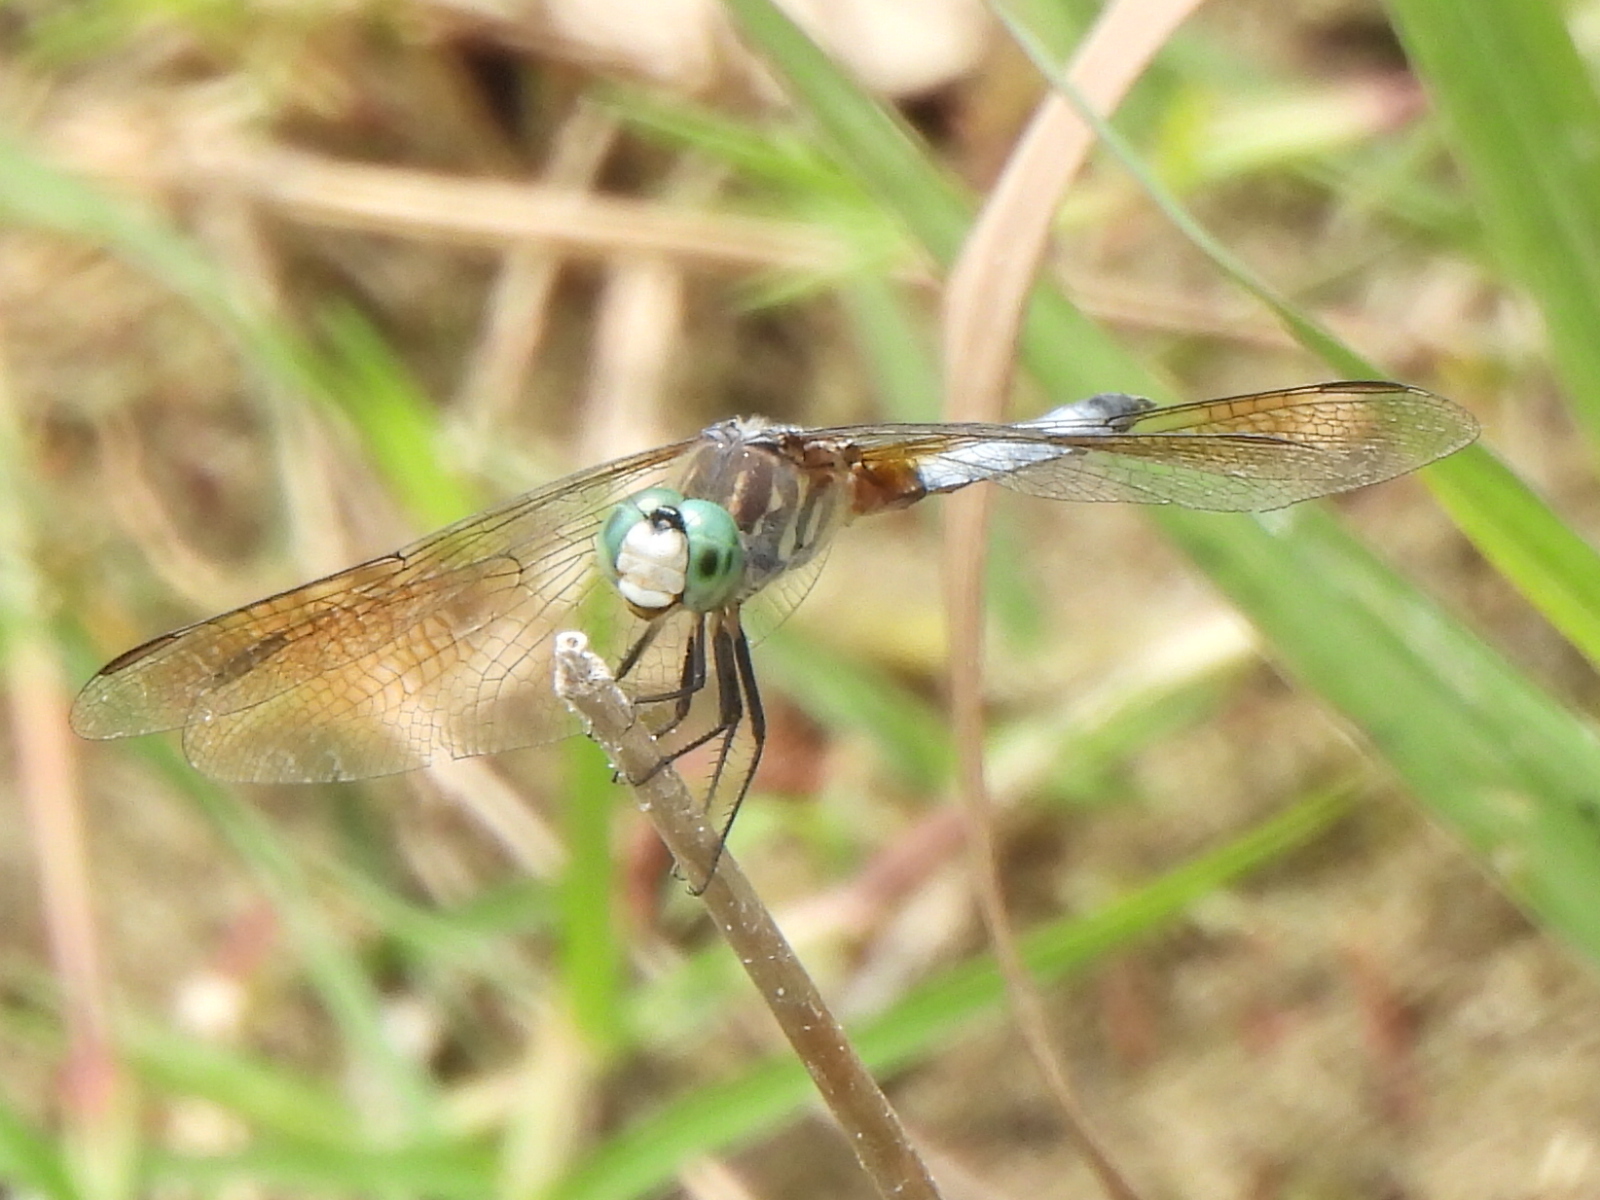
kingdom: Animalia
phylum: Arthropoda
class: Insecta
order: Odonata
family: Libellulidae
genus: Pachydiplax
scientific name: Pachydiplax longipennis
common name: Blue dasher
